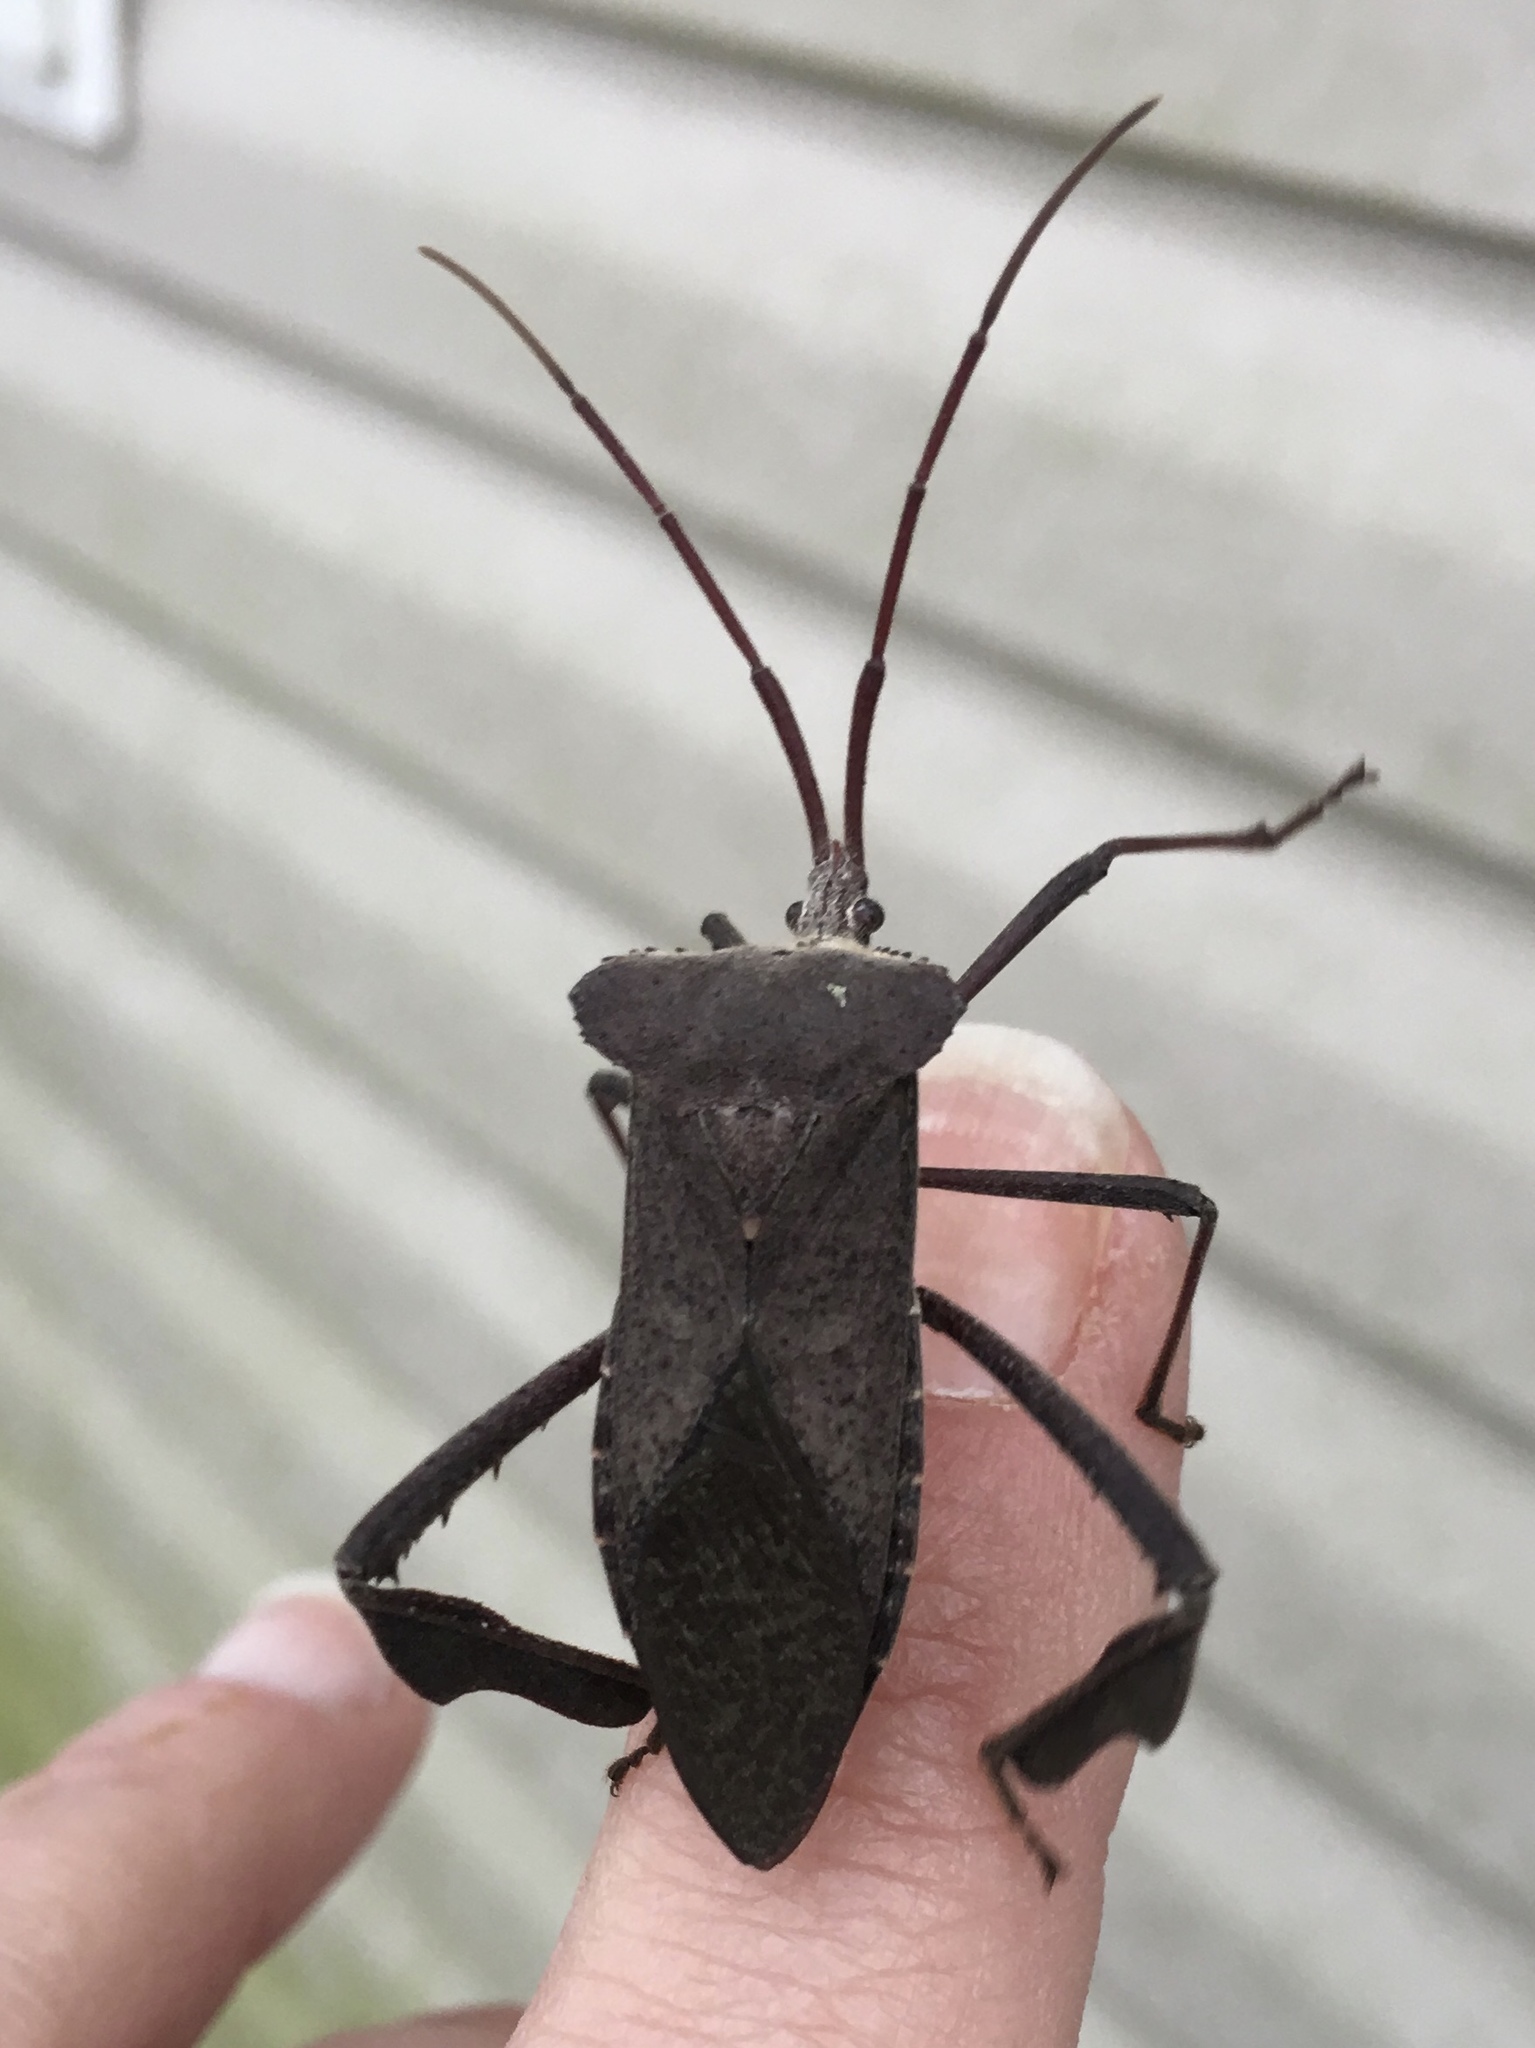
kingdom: Animalia
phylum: Arthropoda
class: Insecta
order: Hemiptera
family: Coreidae
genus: Acanthocephala
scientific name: Acanthocephala declivis
